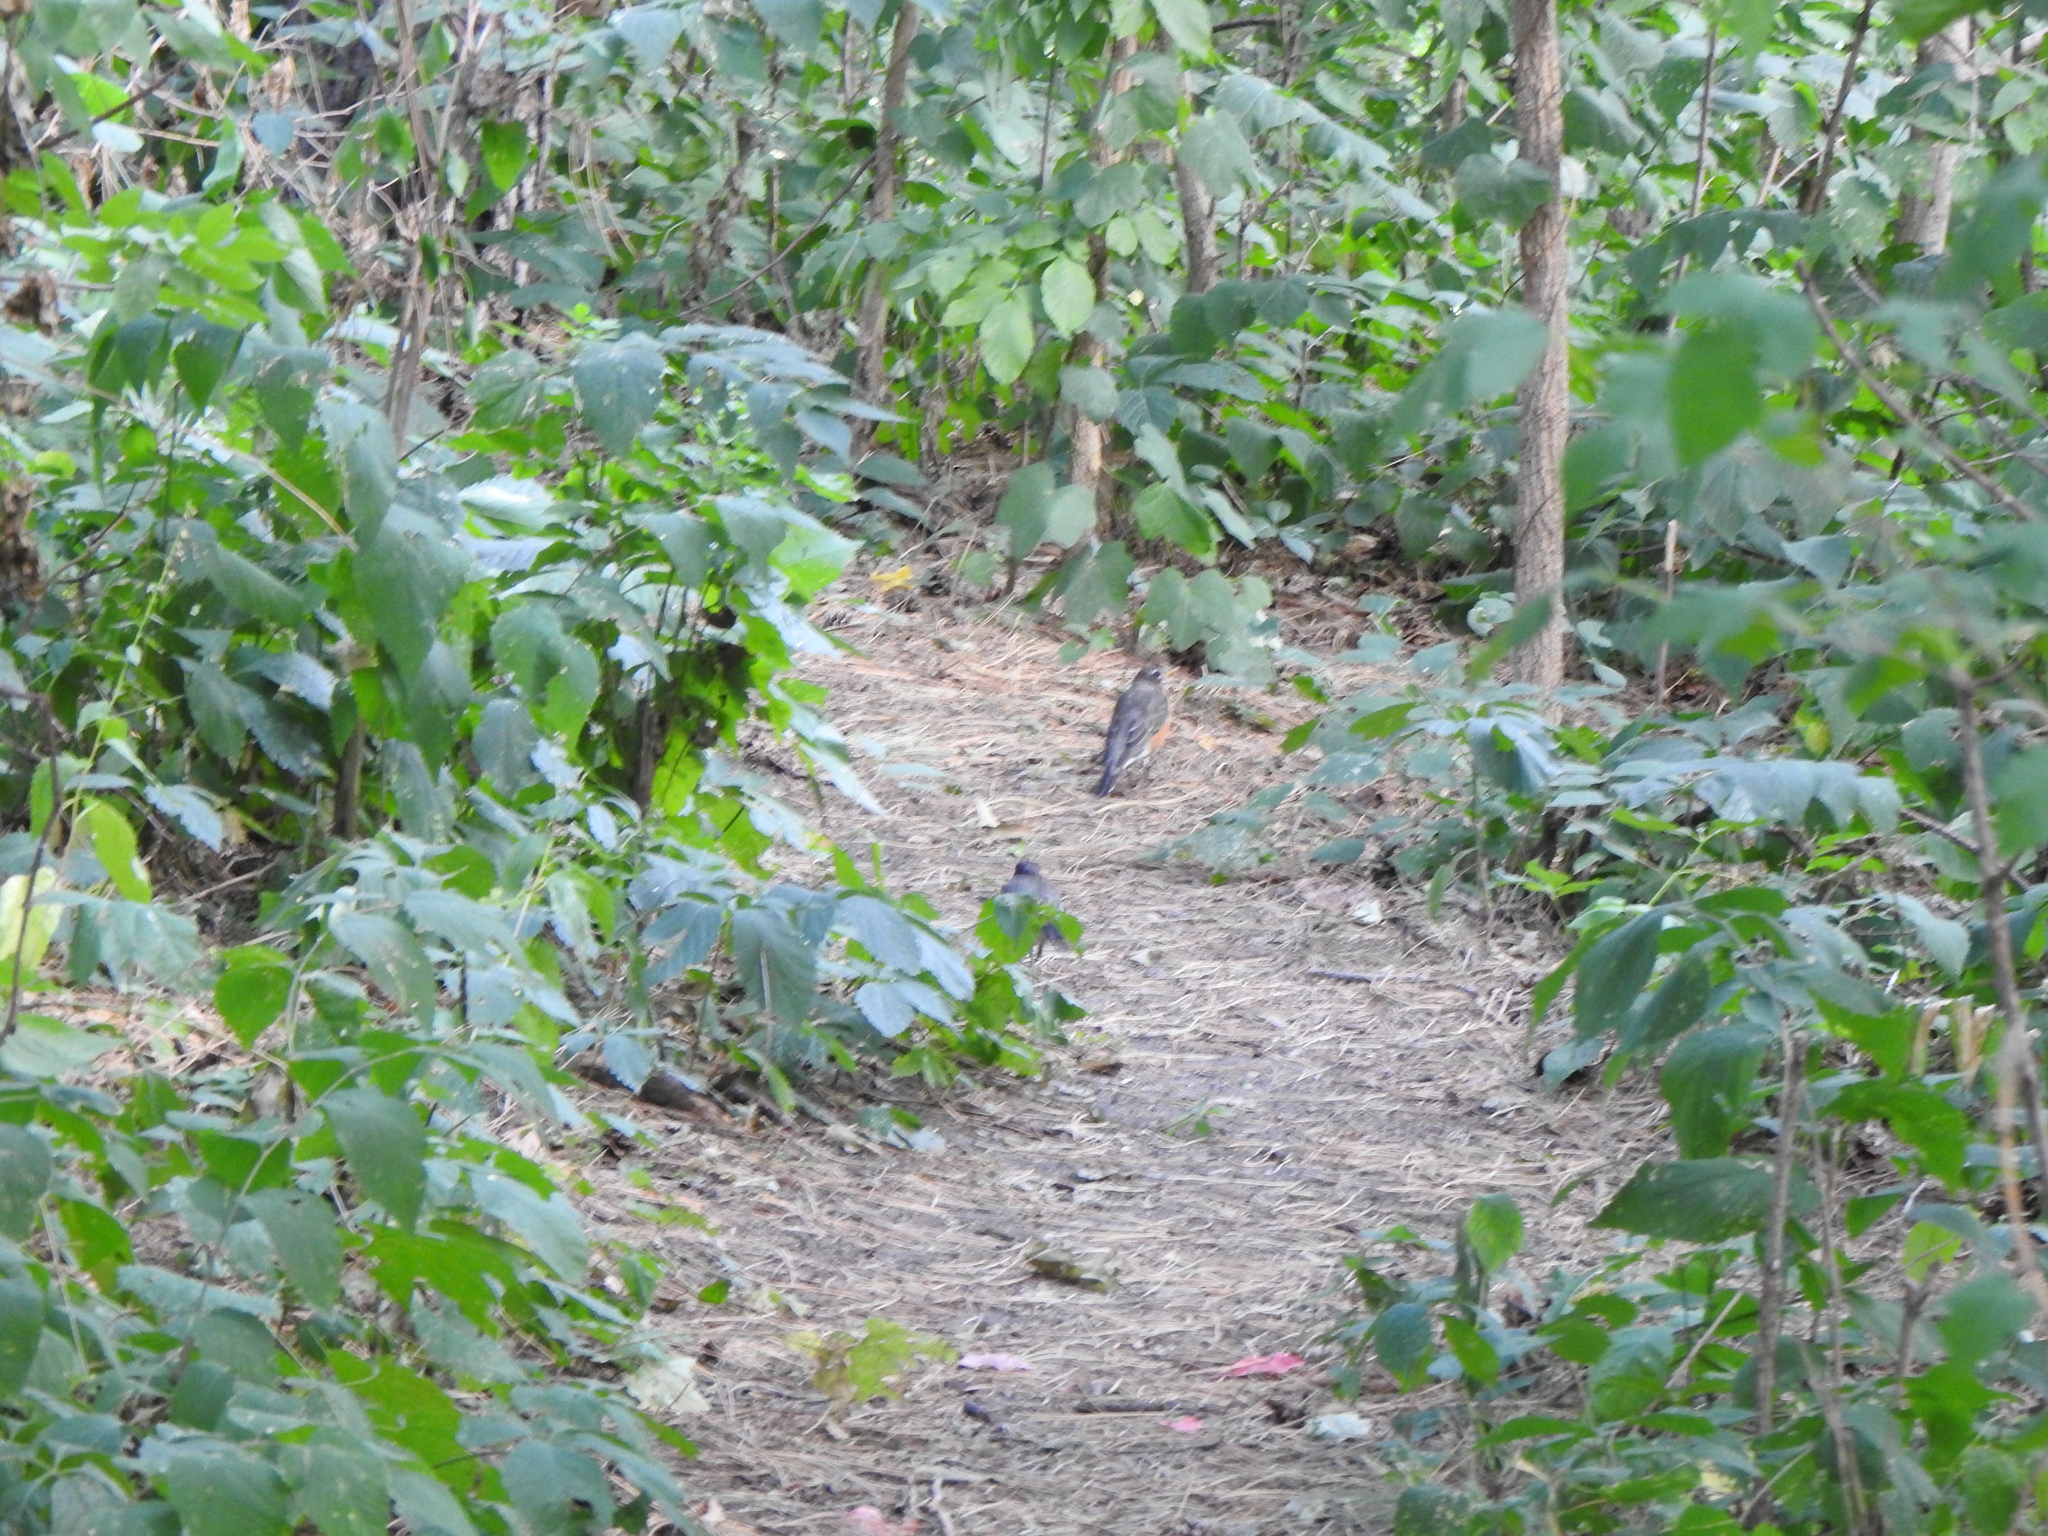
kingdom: Animalia
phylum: Chordata
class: Aves
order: Passeriformes
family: Turdidae
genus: Turdus
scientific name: Turdus migratorius
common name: American robin
